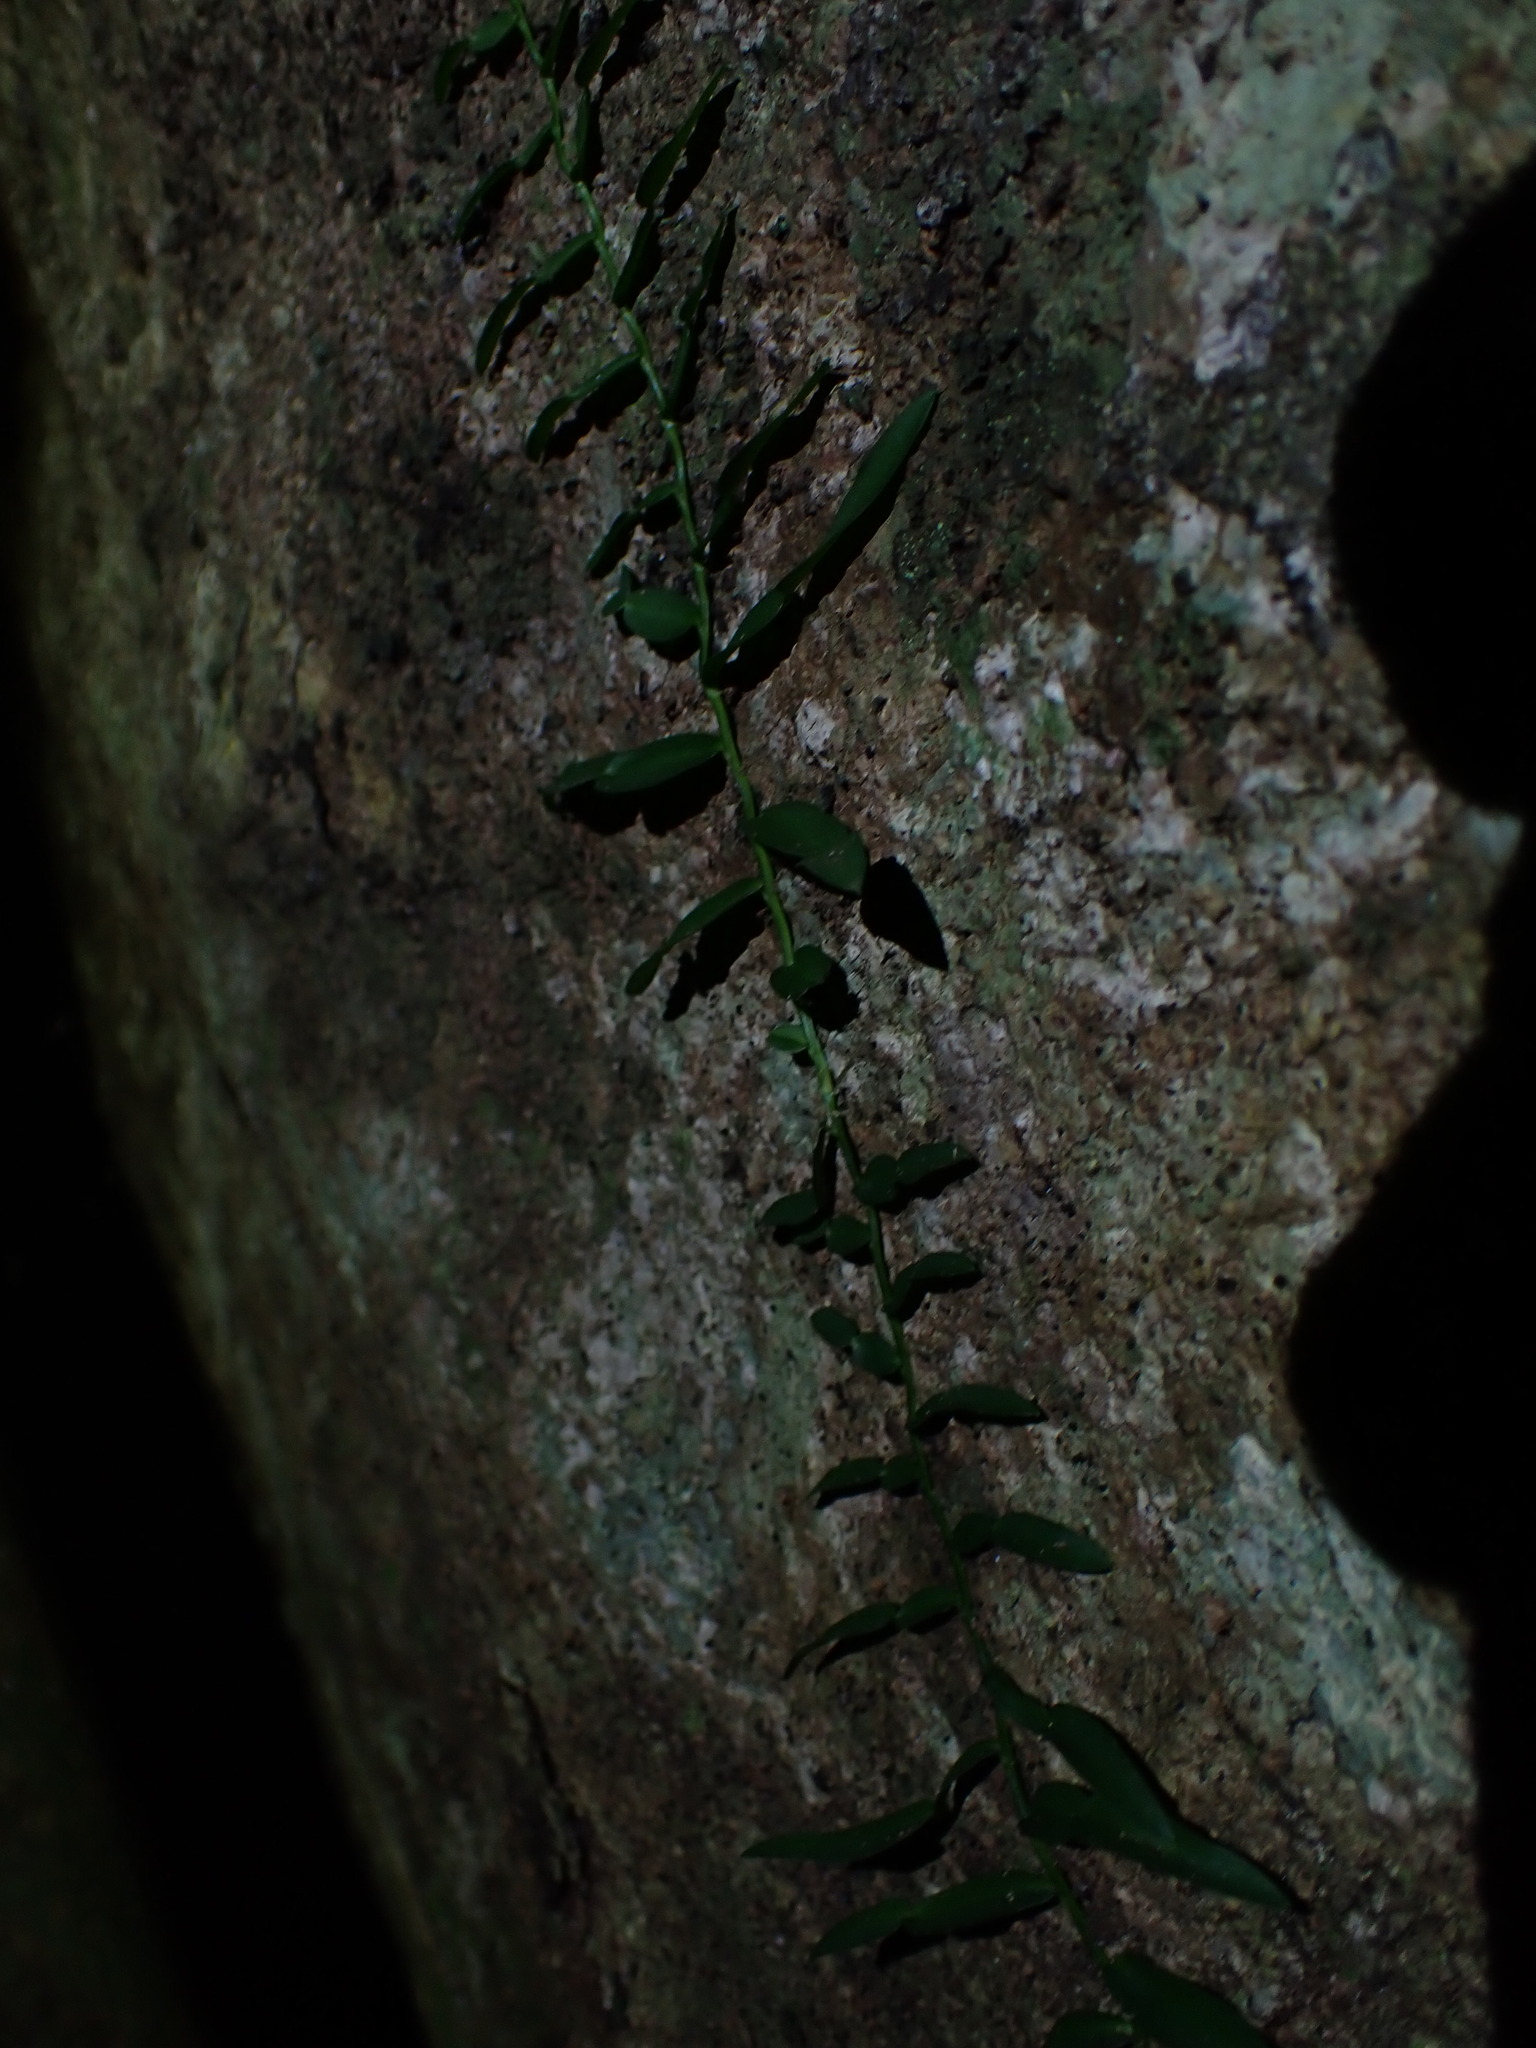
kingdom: Plantae
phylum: Tracheophyta
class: Liliopsida
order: Alismatales
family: Araceae
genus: Pothos
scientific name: Pothos longipes
